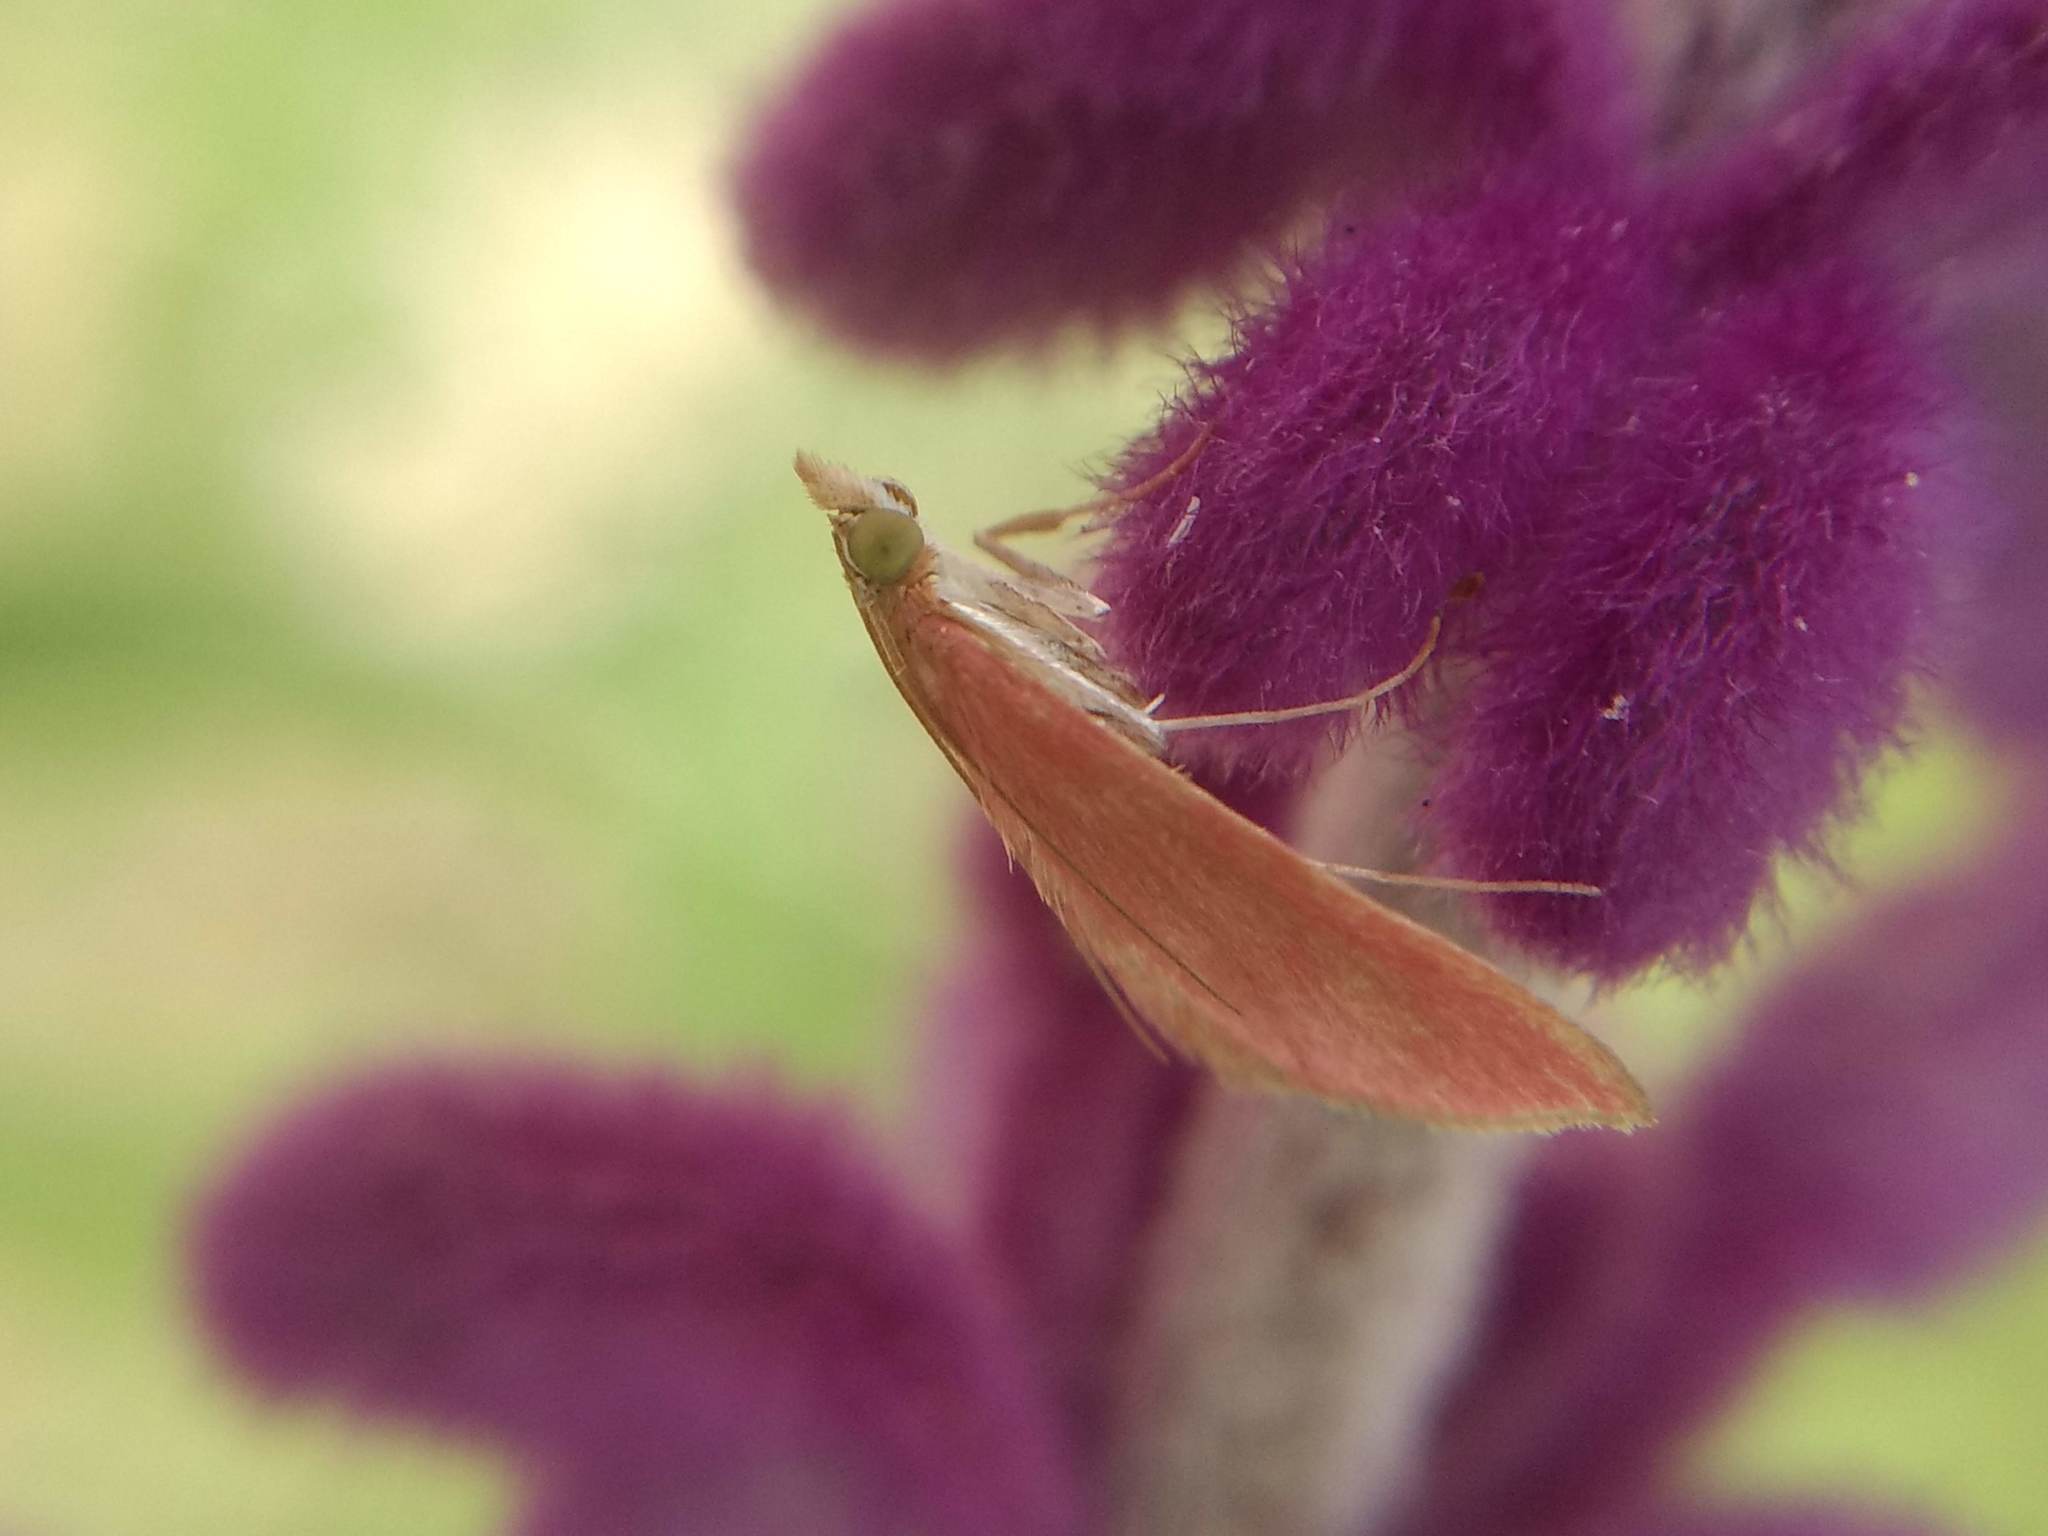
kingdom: Animalia
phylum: Arthropoda
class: Insecta
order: Lepidoptera
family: Crambidae
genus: Pyrausta
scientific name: Pyrausta inornatalis
